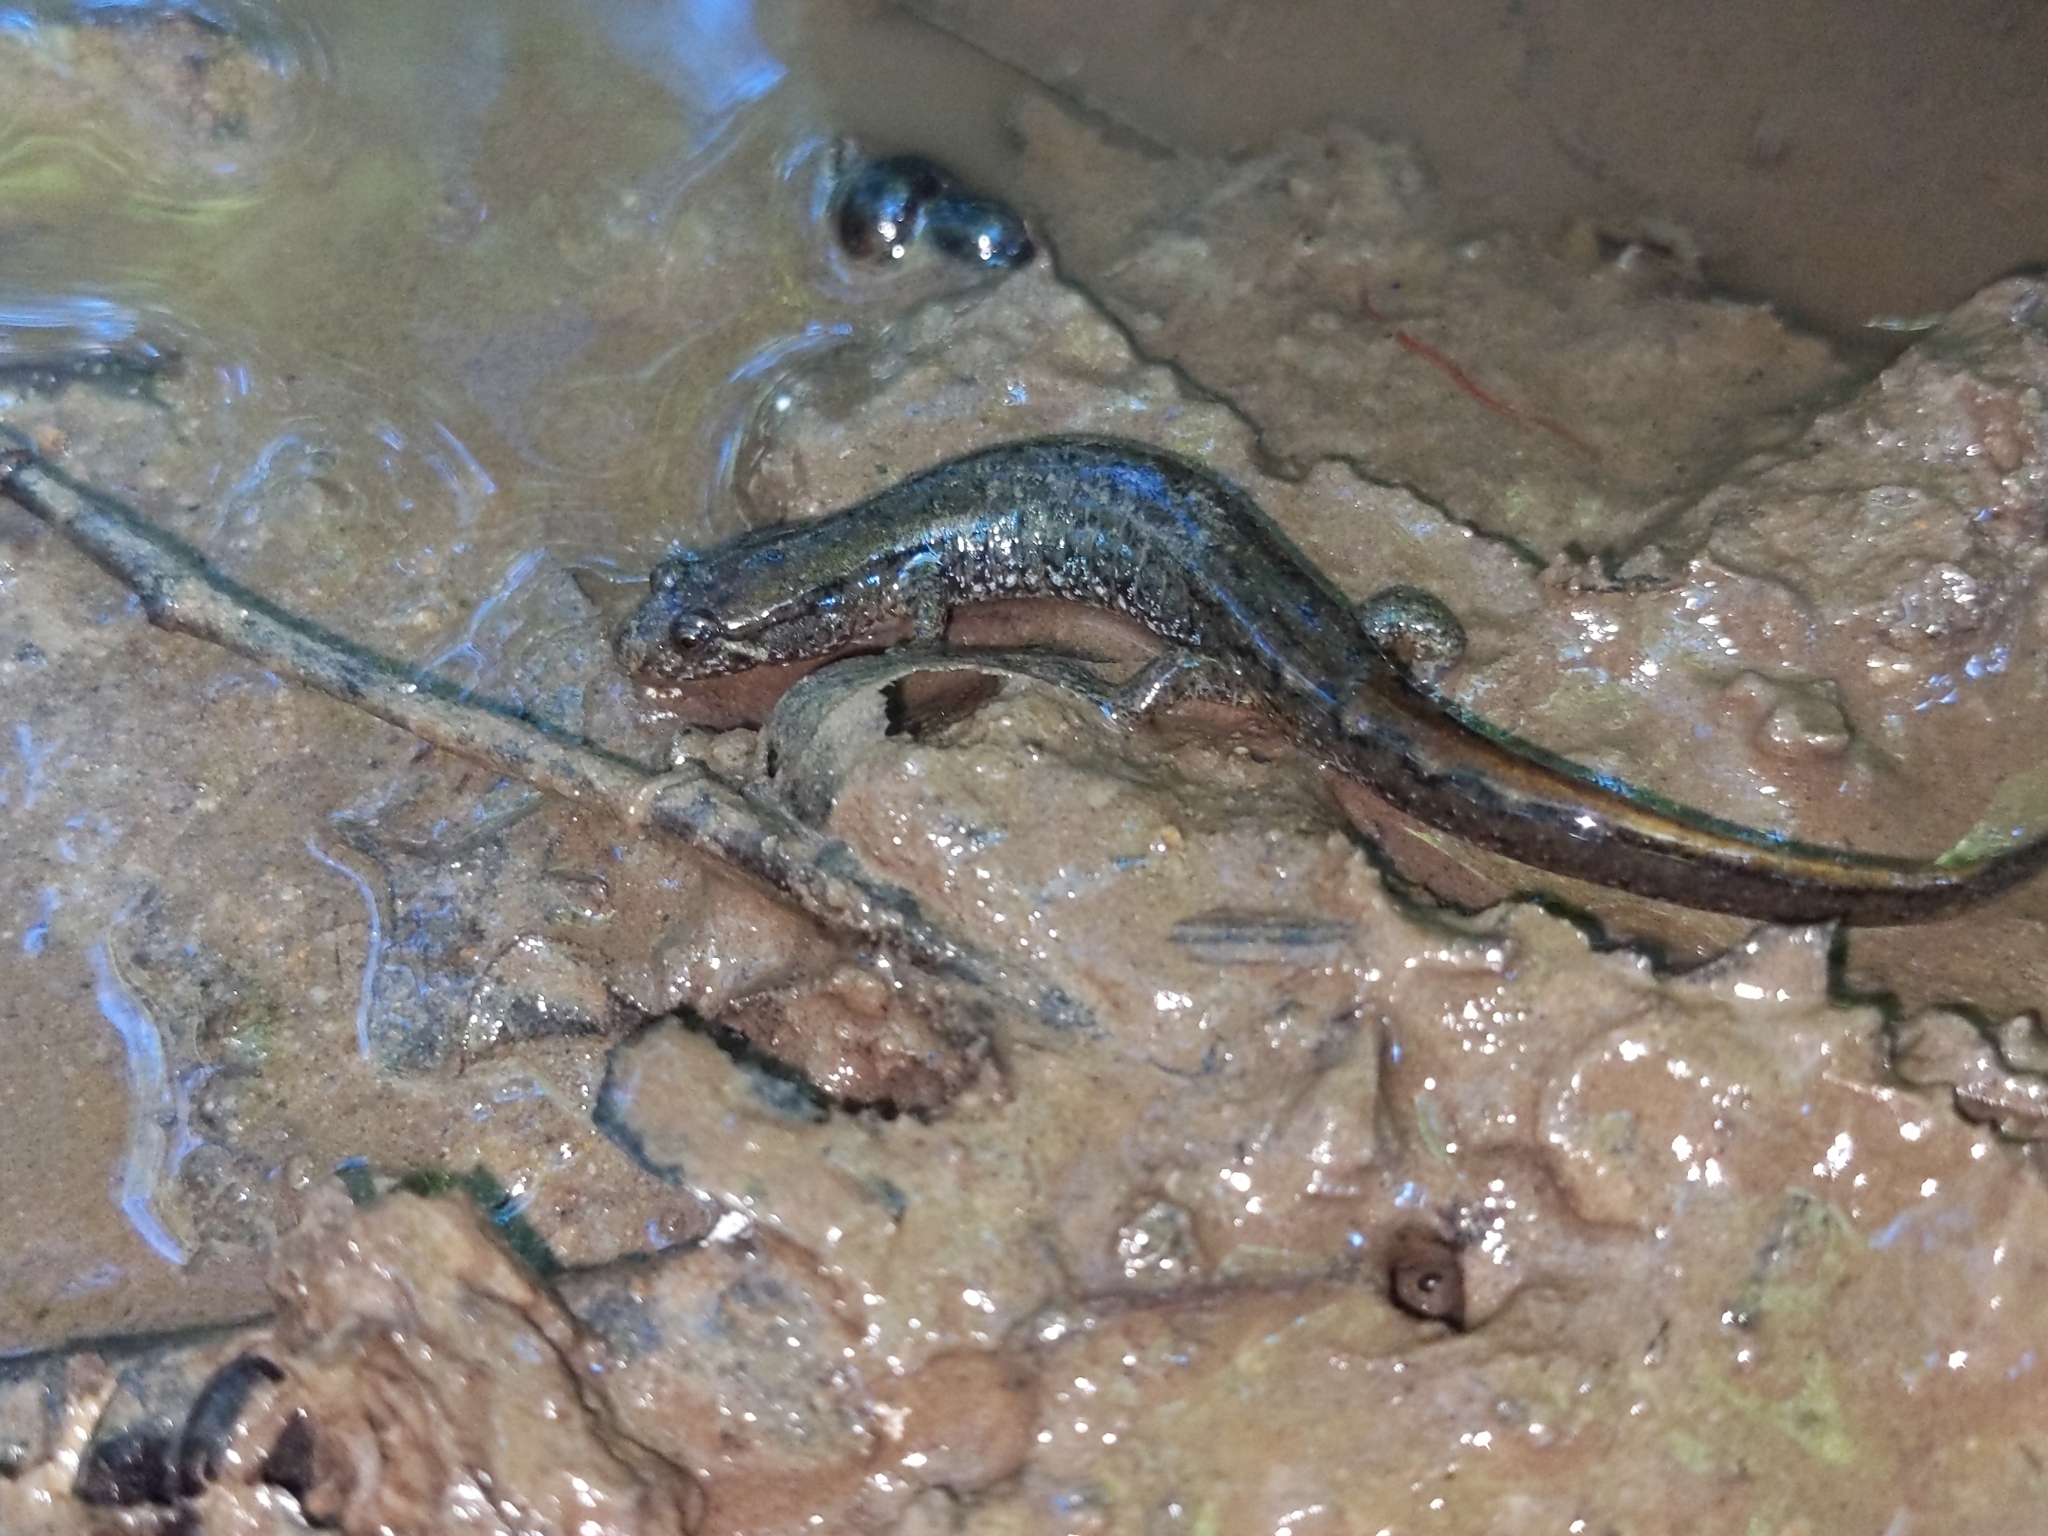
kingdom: Animalia
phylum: Chordata
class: Amphibia
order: Caudata
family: Plethodontidae
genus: Desmognathus
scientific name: Desmognathus fuscus
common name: Northern dusky salamander
